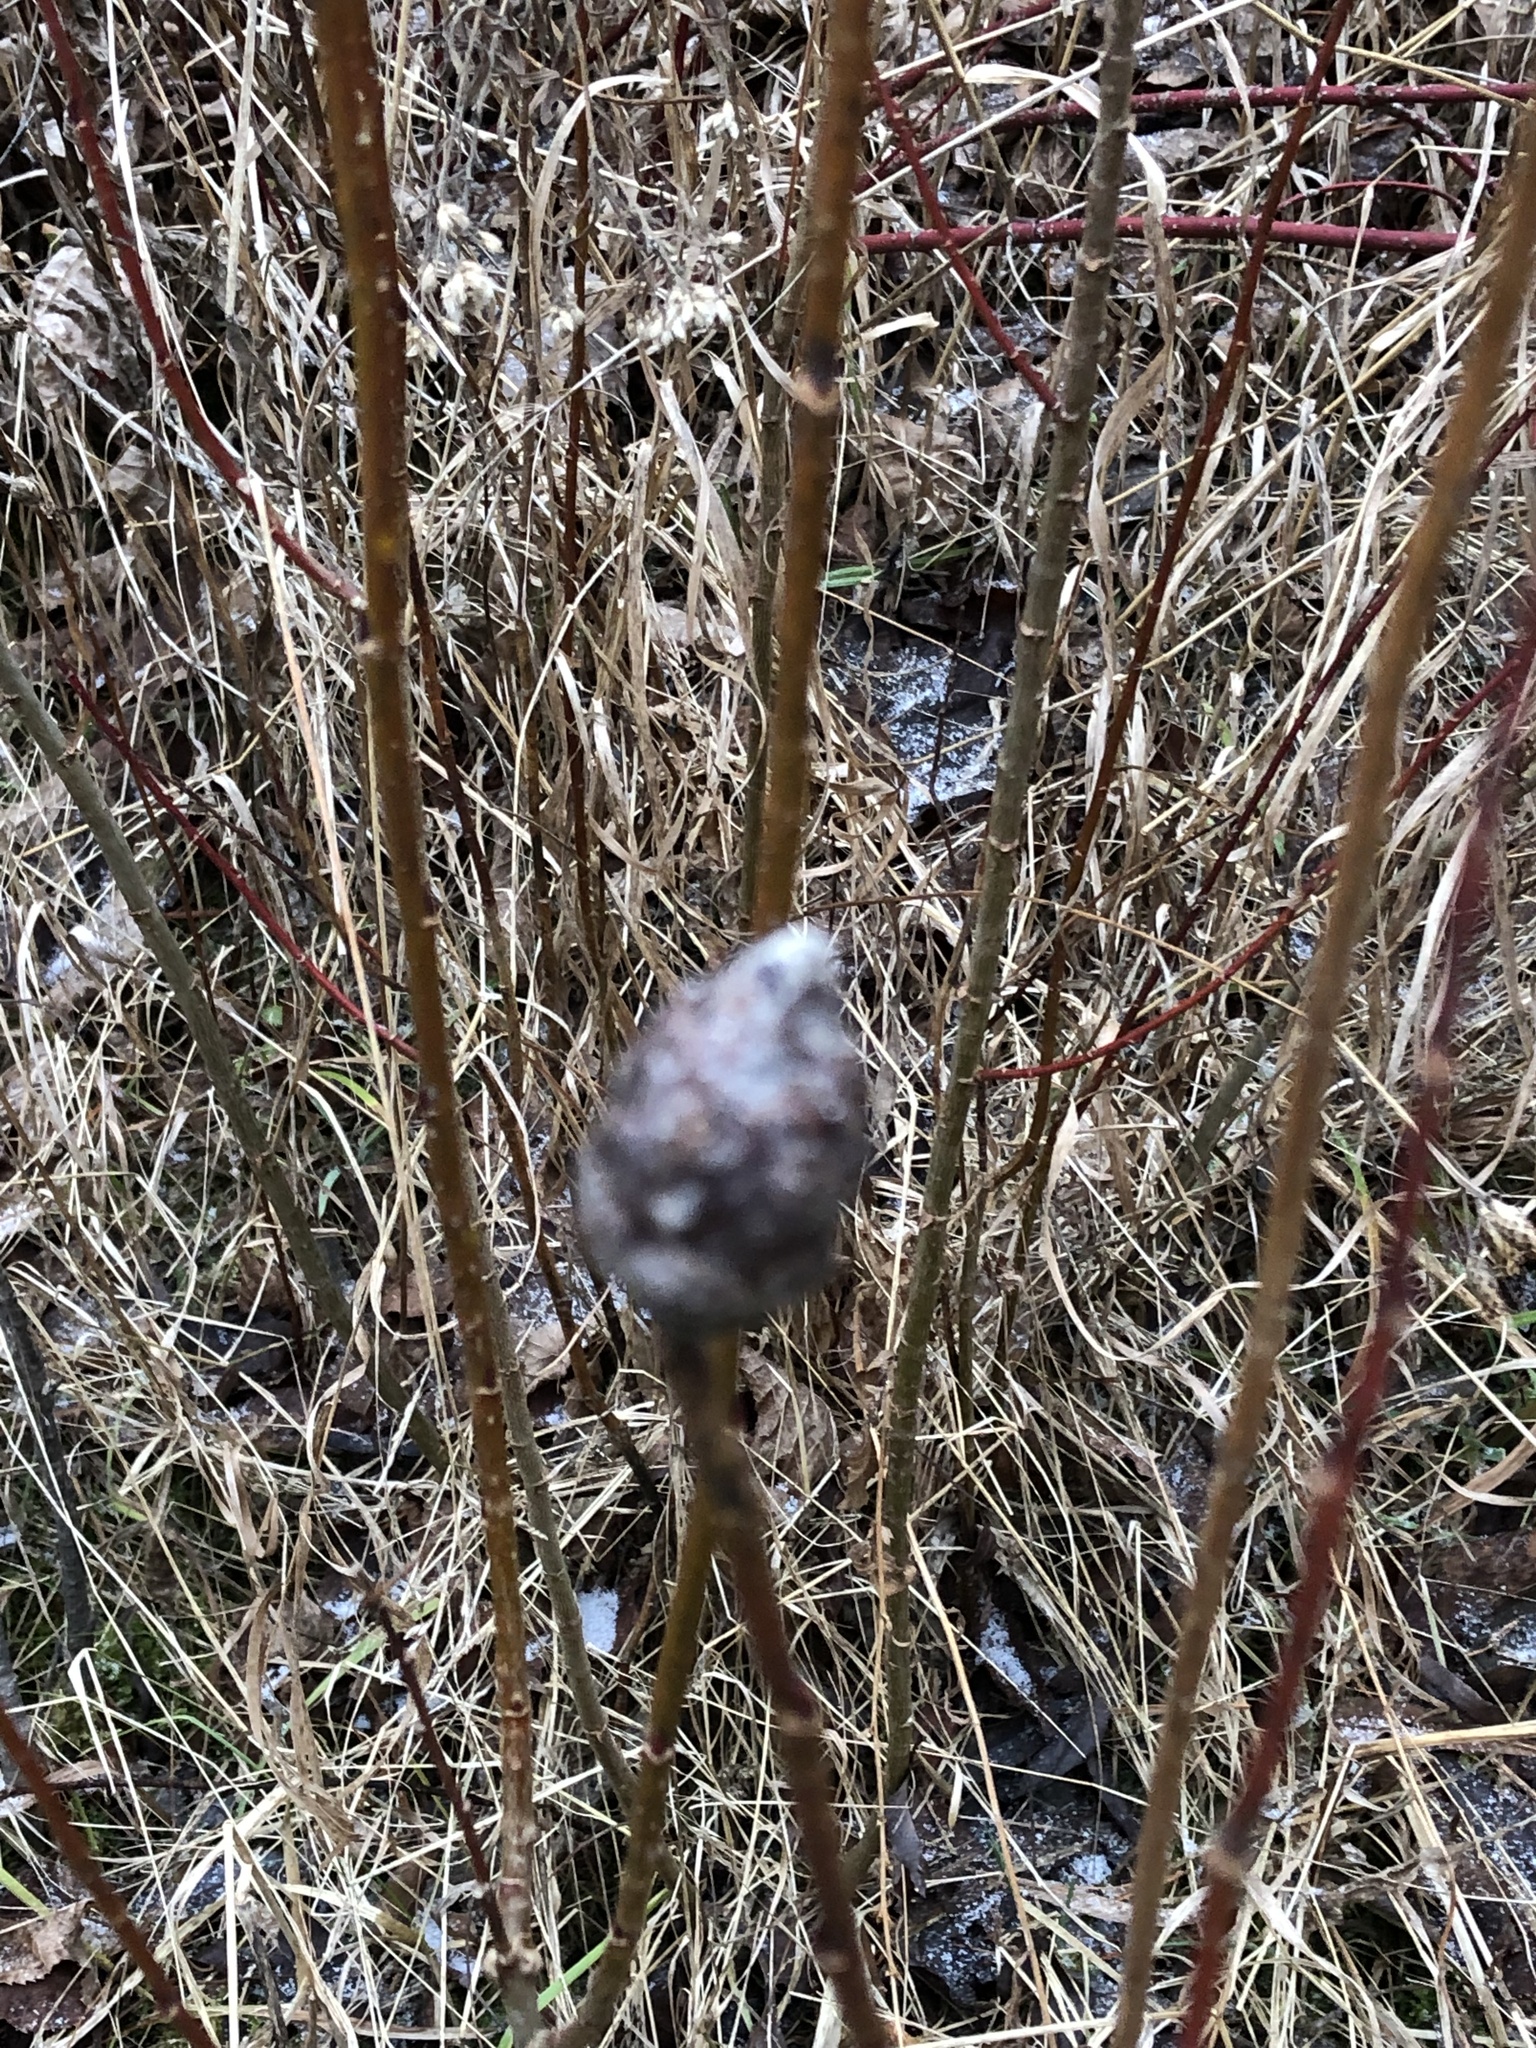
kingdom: Animalia
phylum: Arthropoda
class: Insecta
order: Diptera
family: Cecidomyiidae
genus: Rabdophaga
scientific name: Rabdophaga strobiloides
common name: Willow pinecone gall midge
